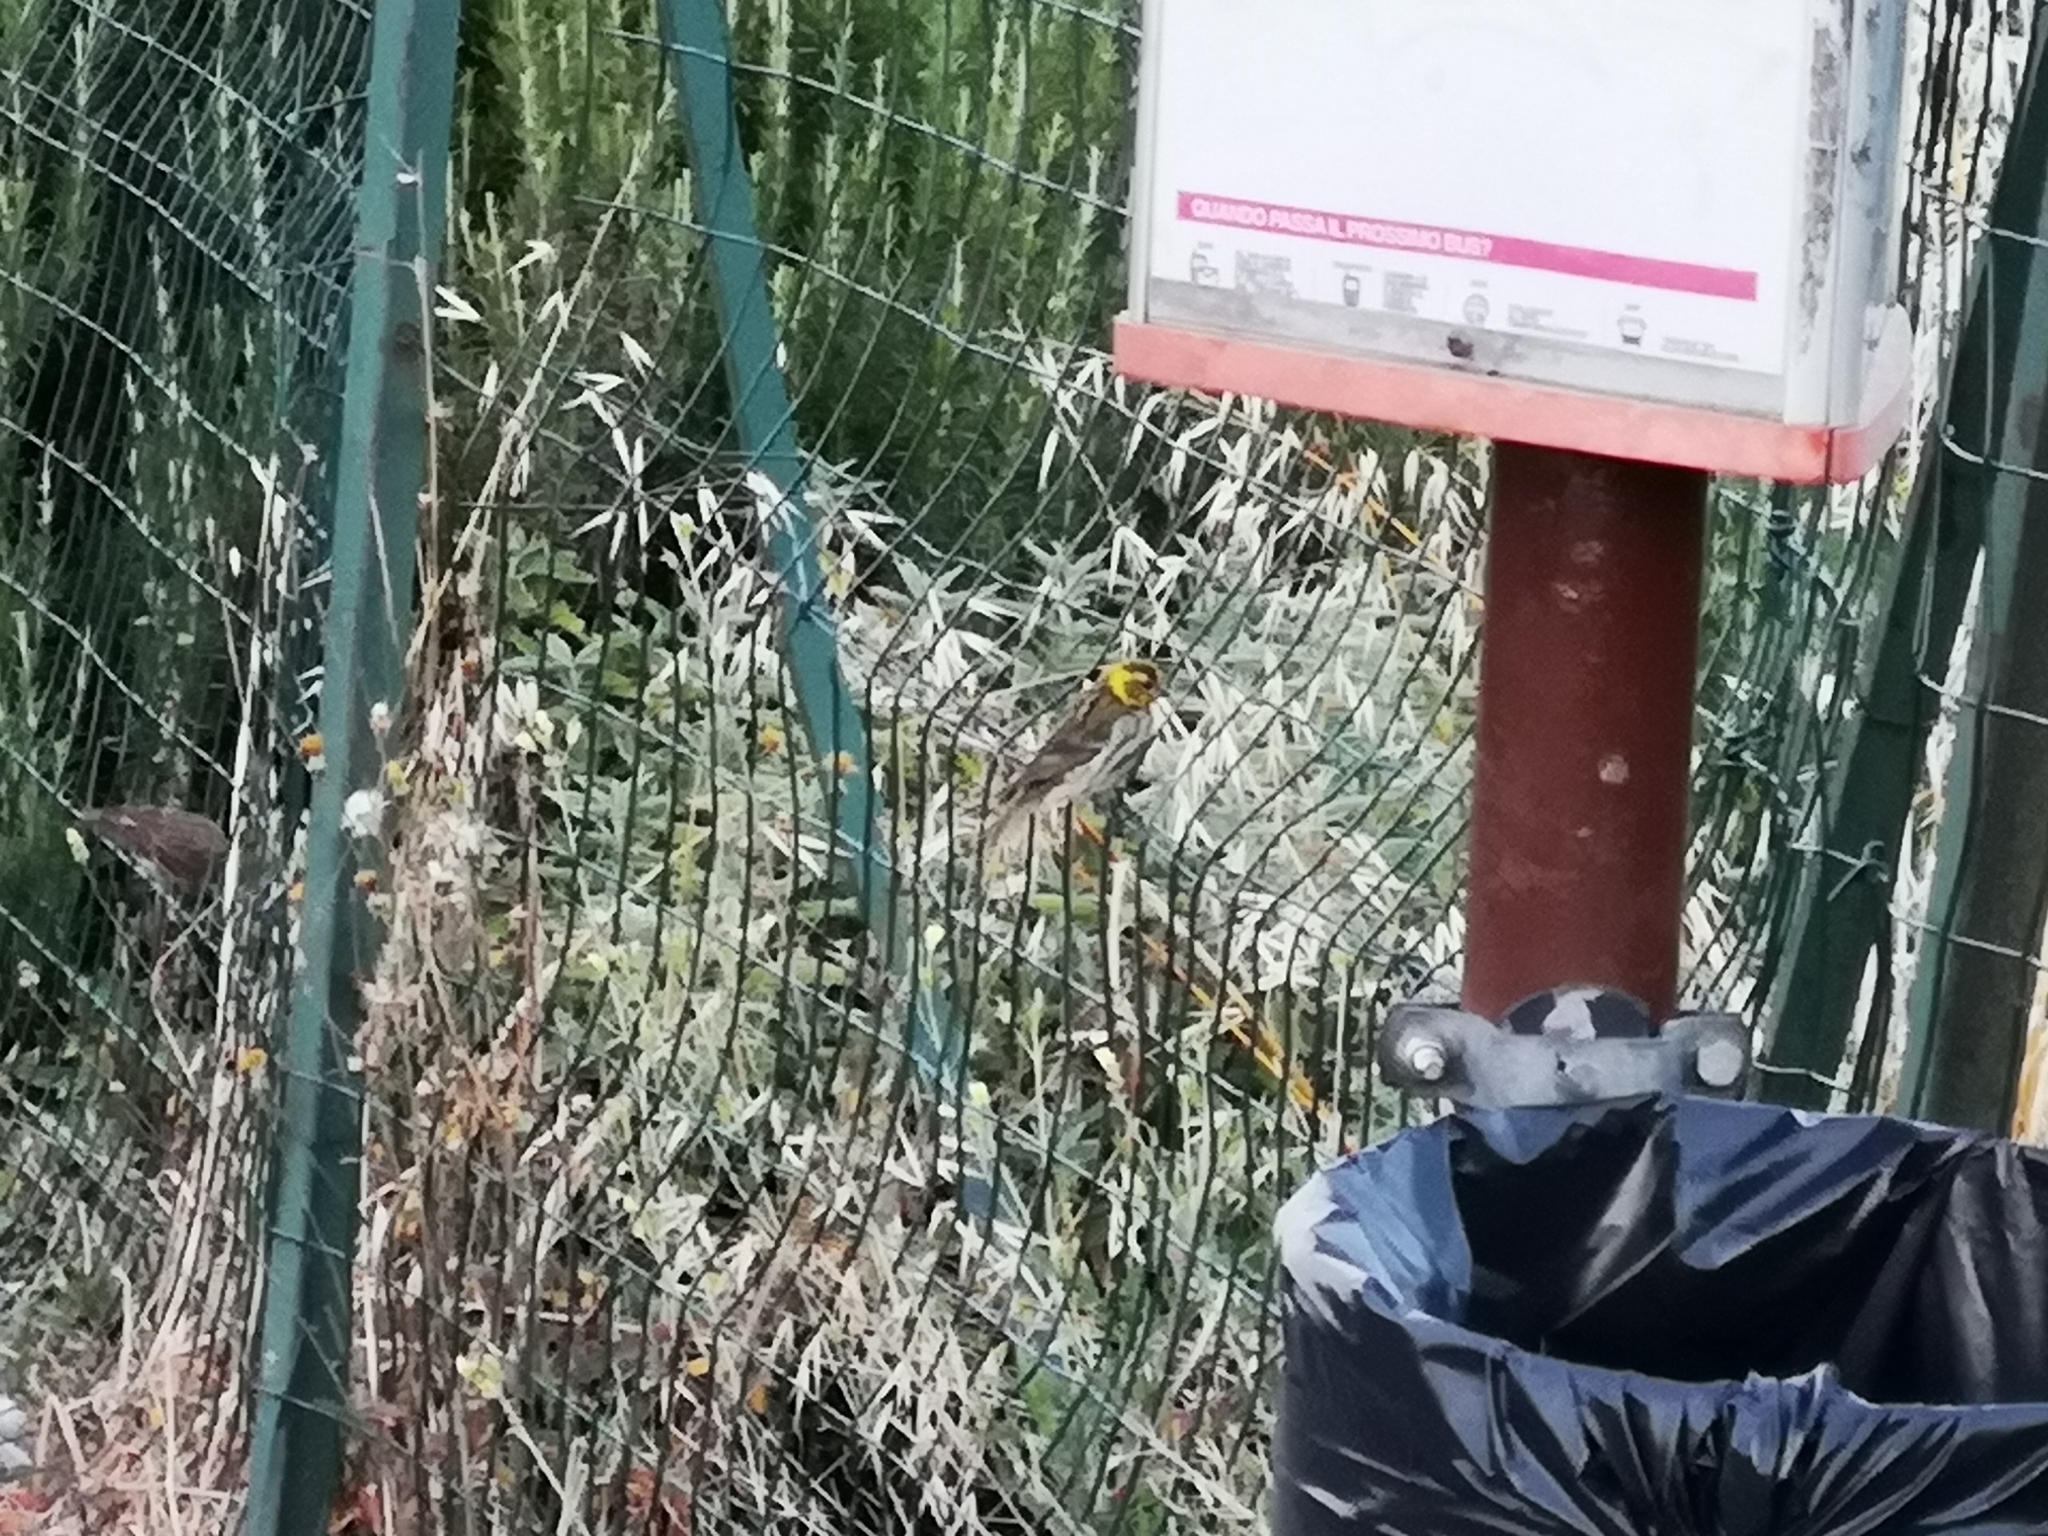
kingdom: Animalia
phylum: Chordata
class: Aves
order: Passeriformes
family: Fringillidae
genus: Serinus
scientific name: Serinus serinus
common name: European serin
